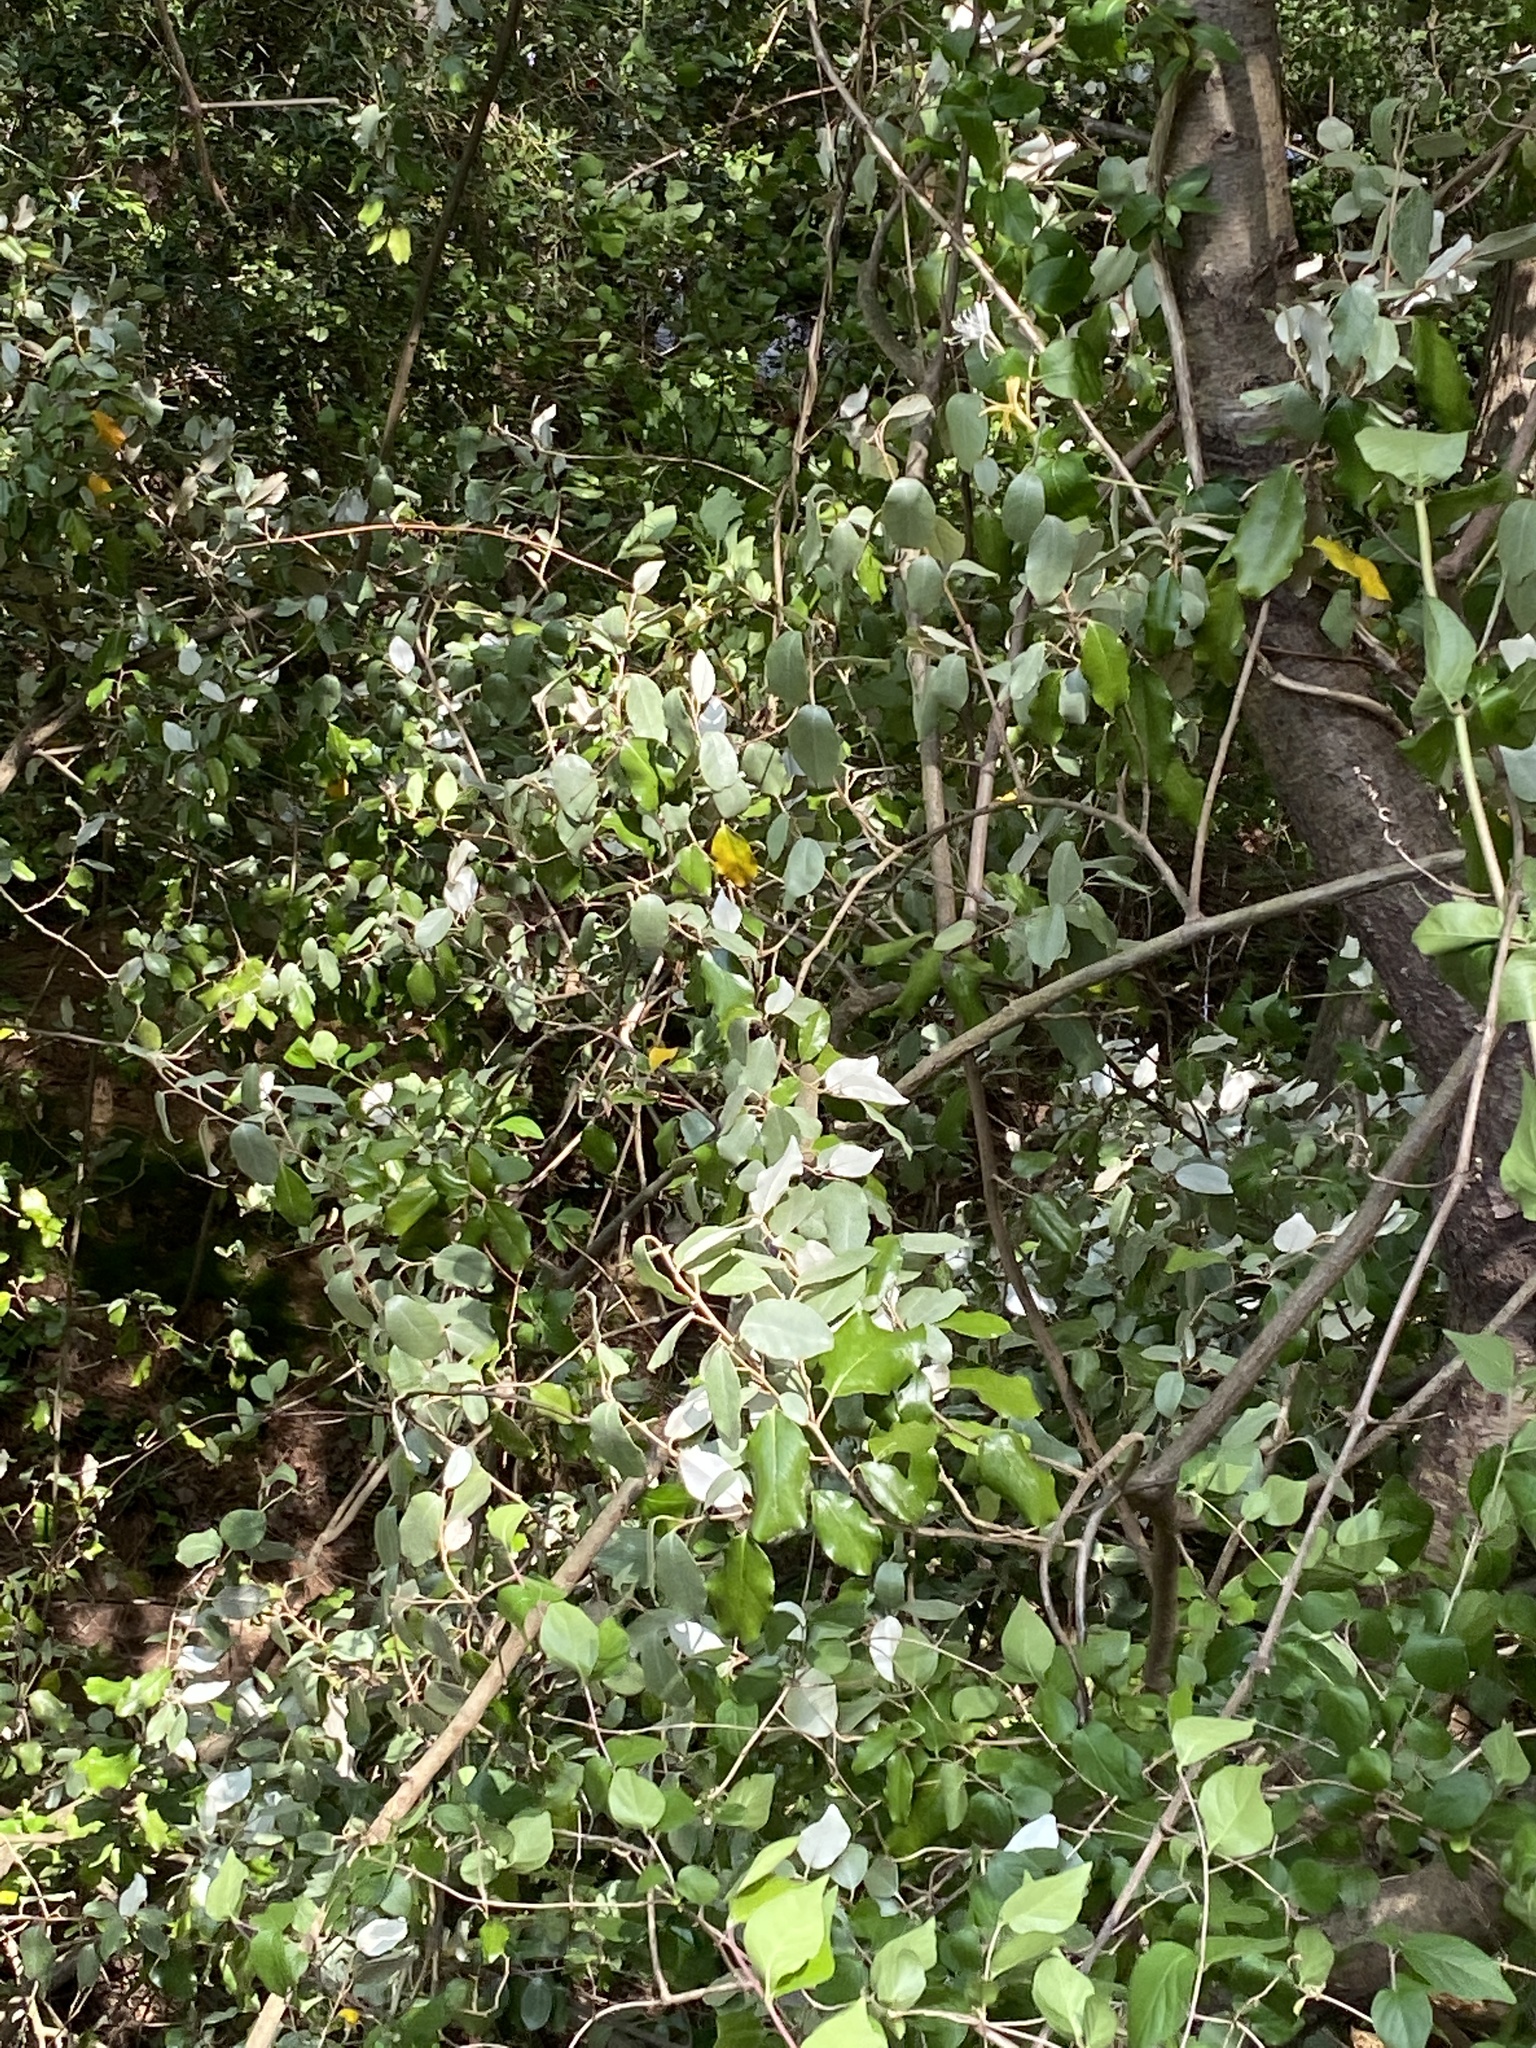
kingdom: Plantae
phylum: Tracheophyta
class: Magnoliopsida
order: Rosales
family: Elaeagnaceae
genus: Elaeagnus
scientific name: Elaeagnus pungens
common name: Spiny oleaster
